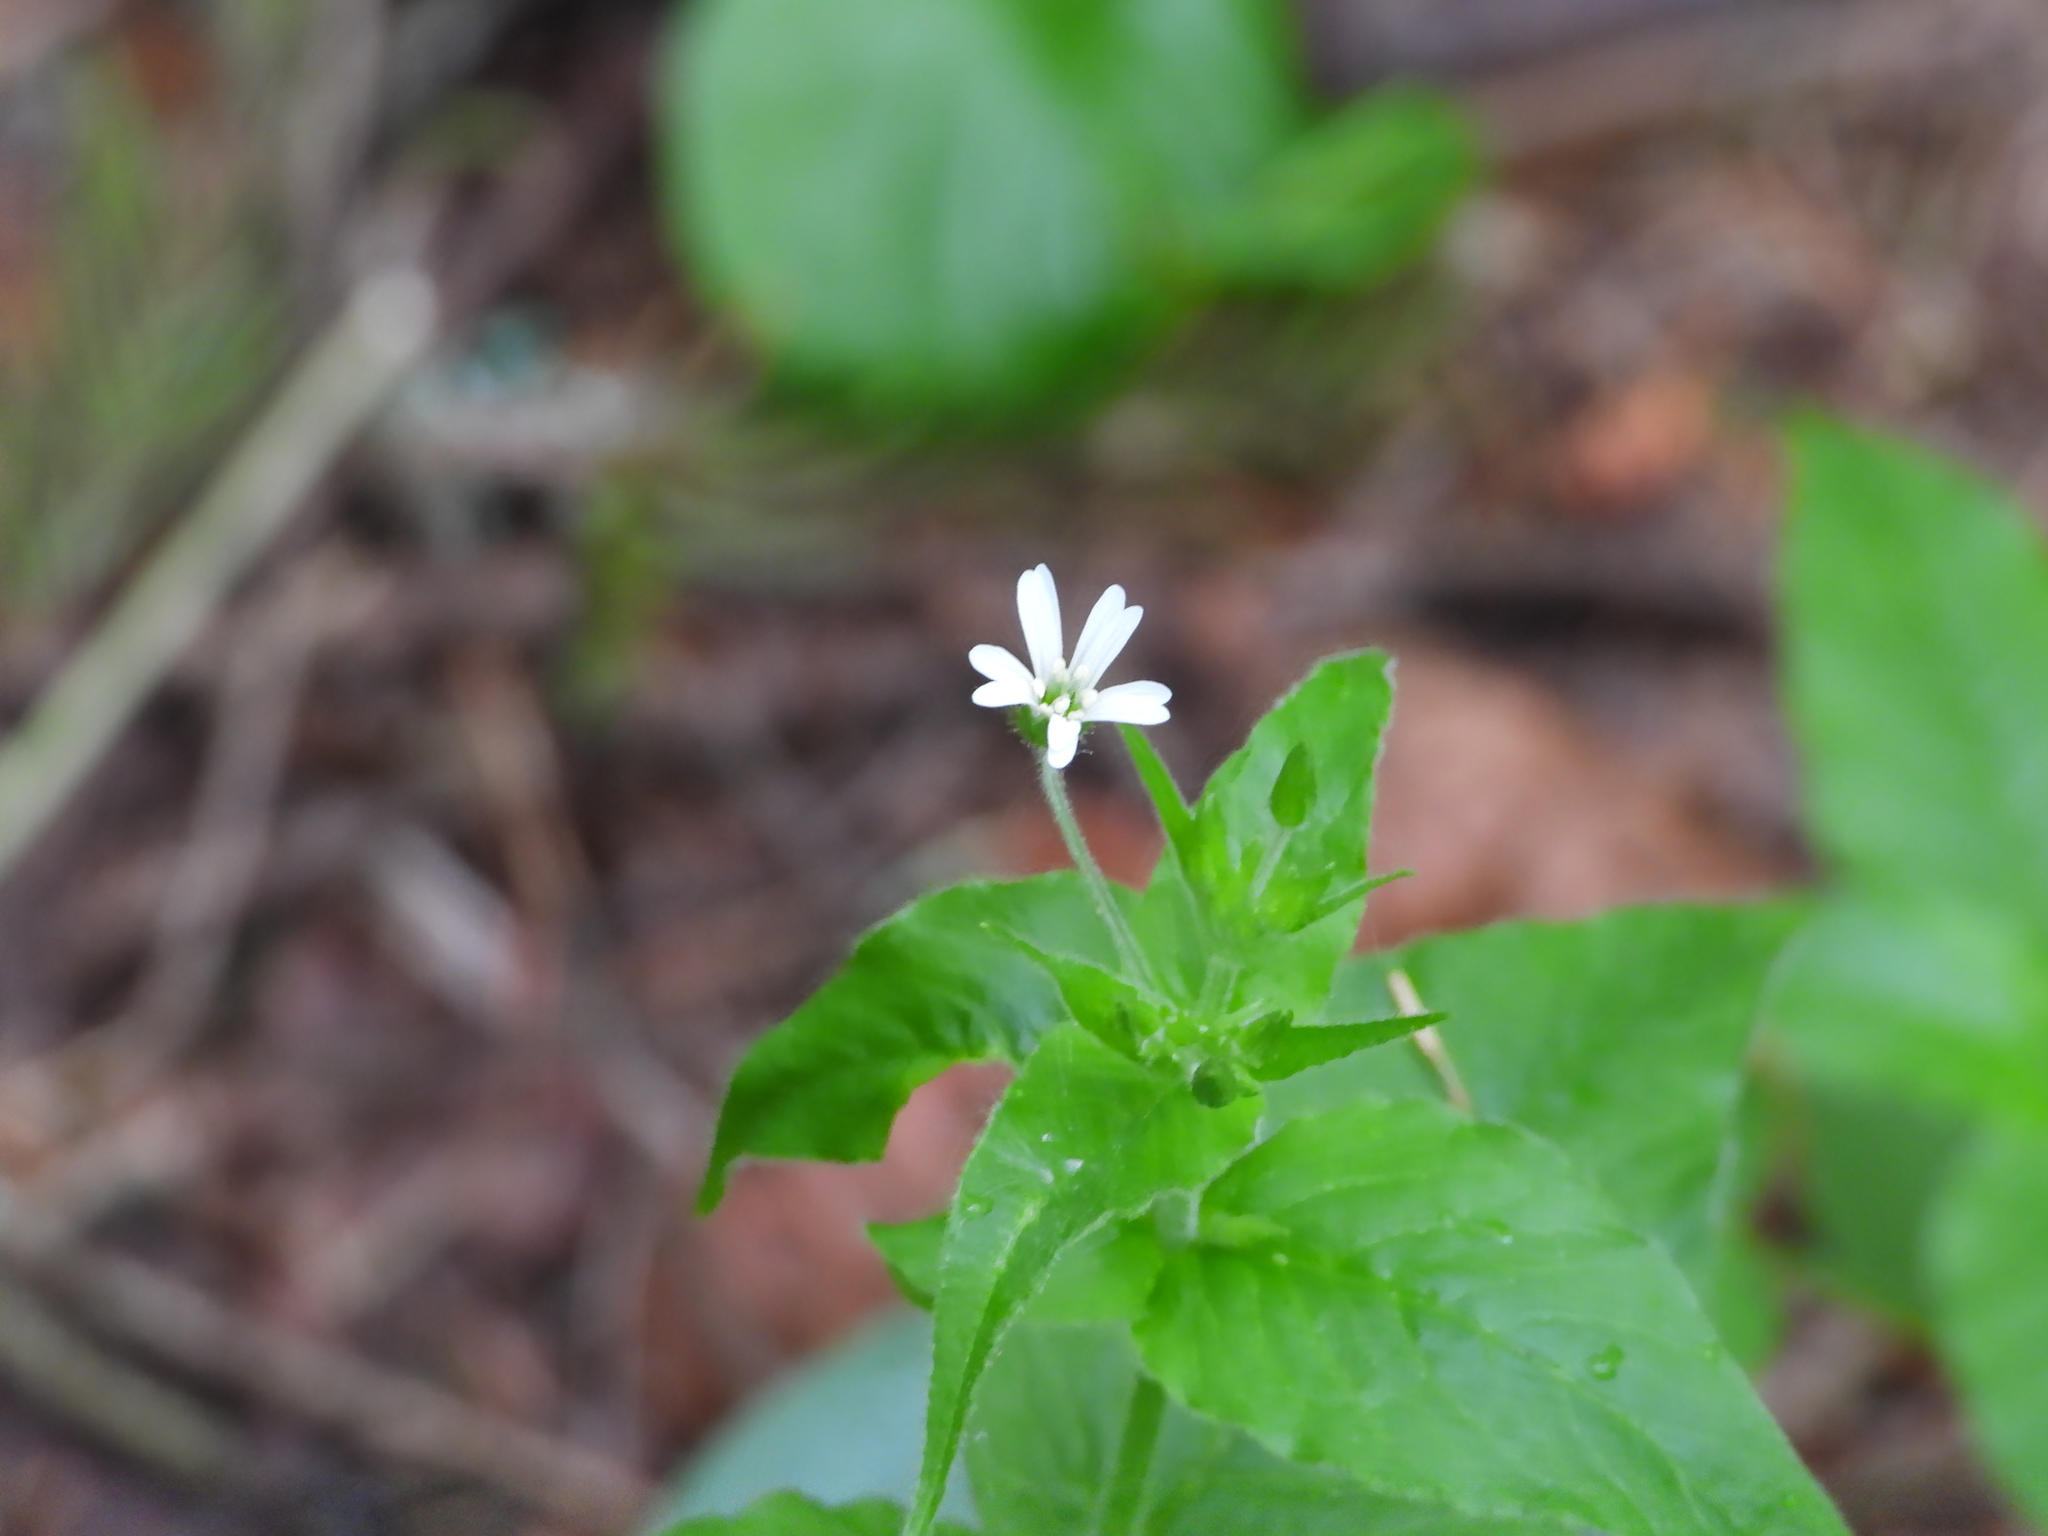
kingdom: Plantae
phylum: Tracheophyta
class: Magnoliopsida
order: Caryophyllales
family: Caryophyllaceae
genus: Stellaria
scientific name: Stellaria bungeana
